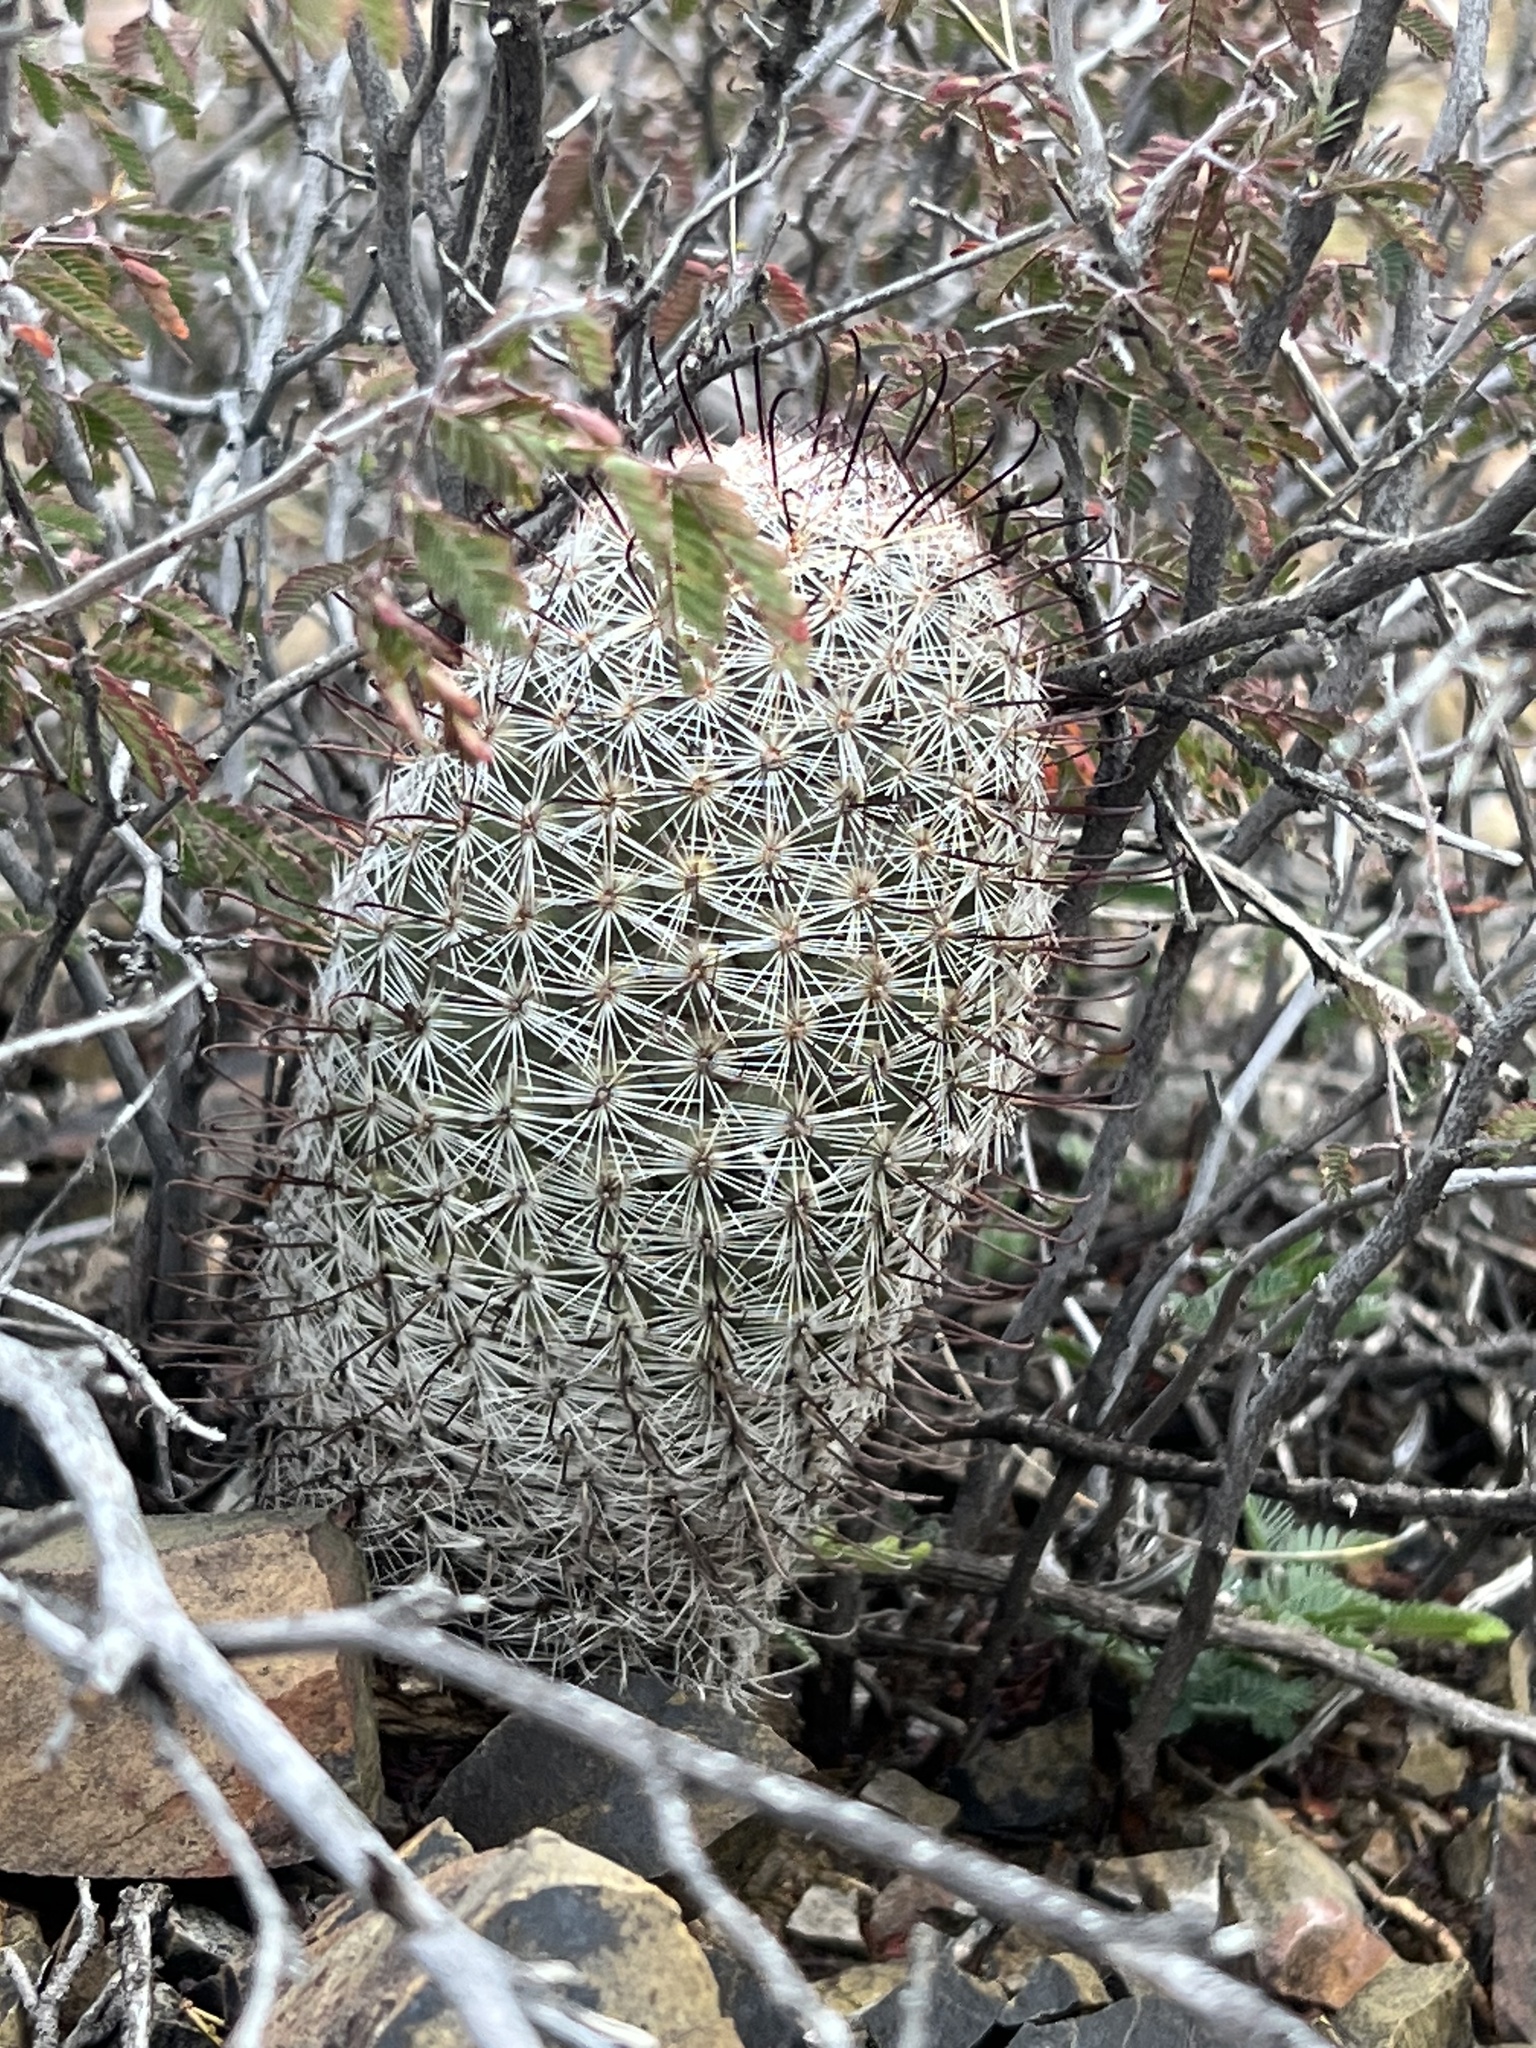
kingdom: Plantae
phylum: Tracheophyta
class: Magnoliopsida
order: Caryophyllales
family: Cactaceae
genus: Cochemiea
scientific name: Cochemiea grahamii
